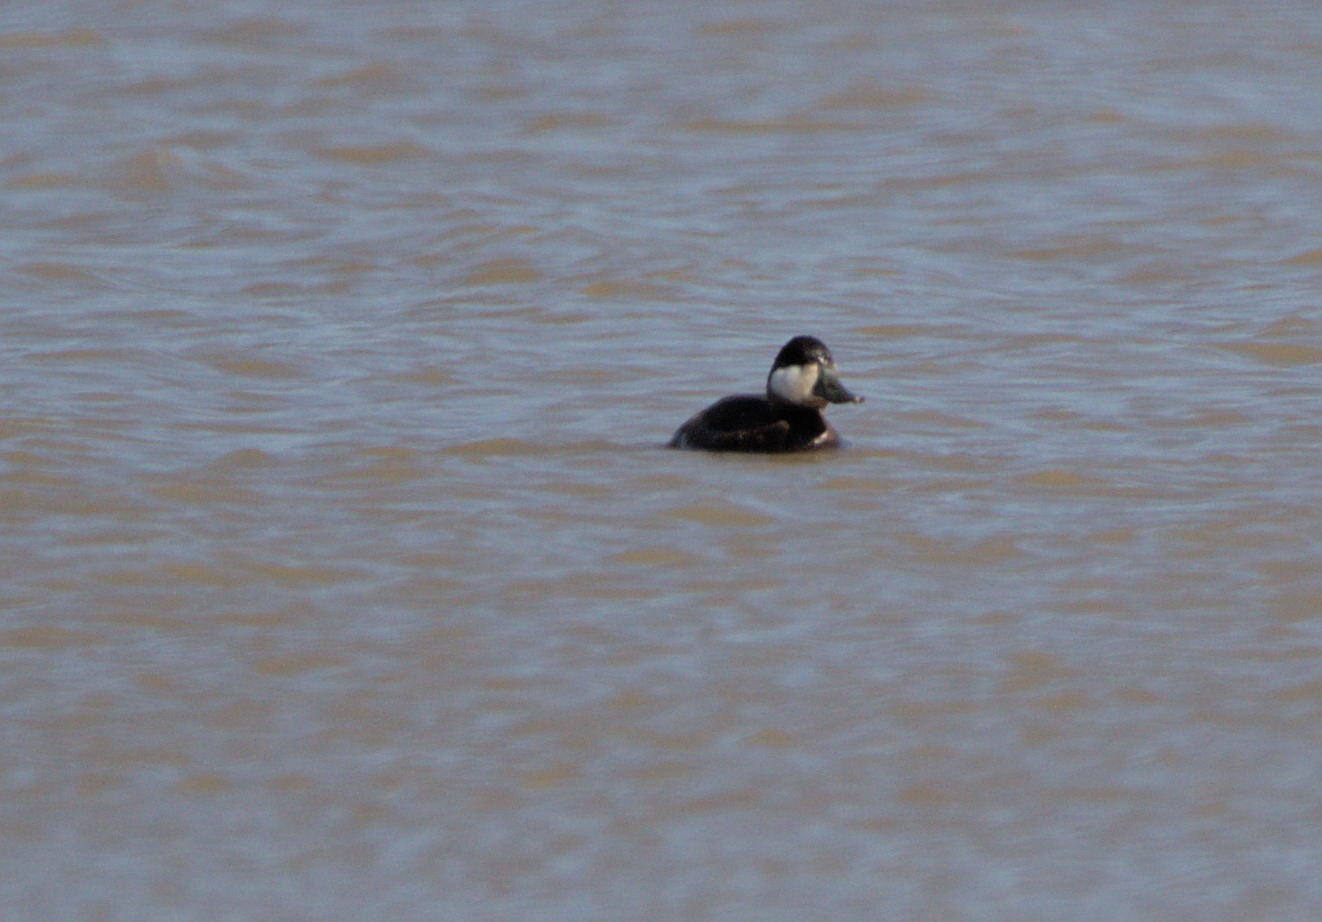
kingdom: Animalia
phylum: Chordata
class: Aves
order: Anseriformes
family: Anatidae
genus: Oxyura
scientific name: Oxyura jamaicensis
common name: Ruddy duck
